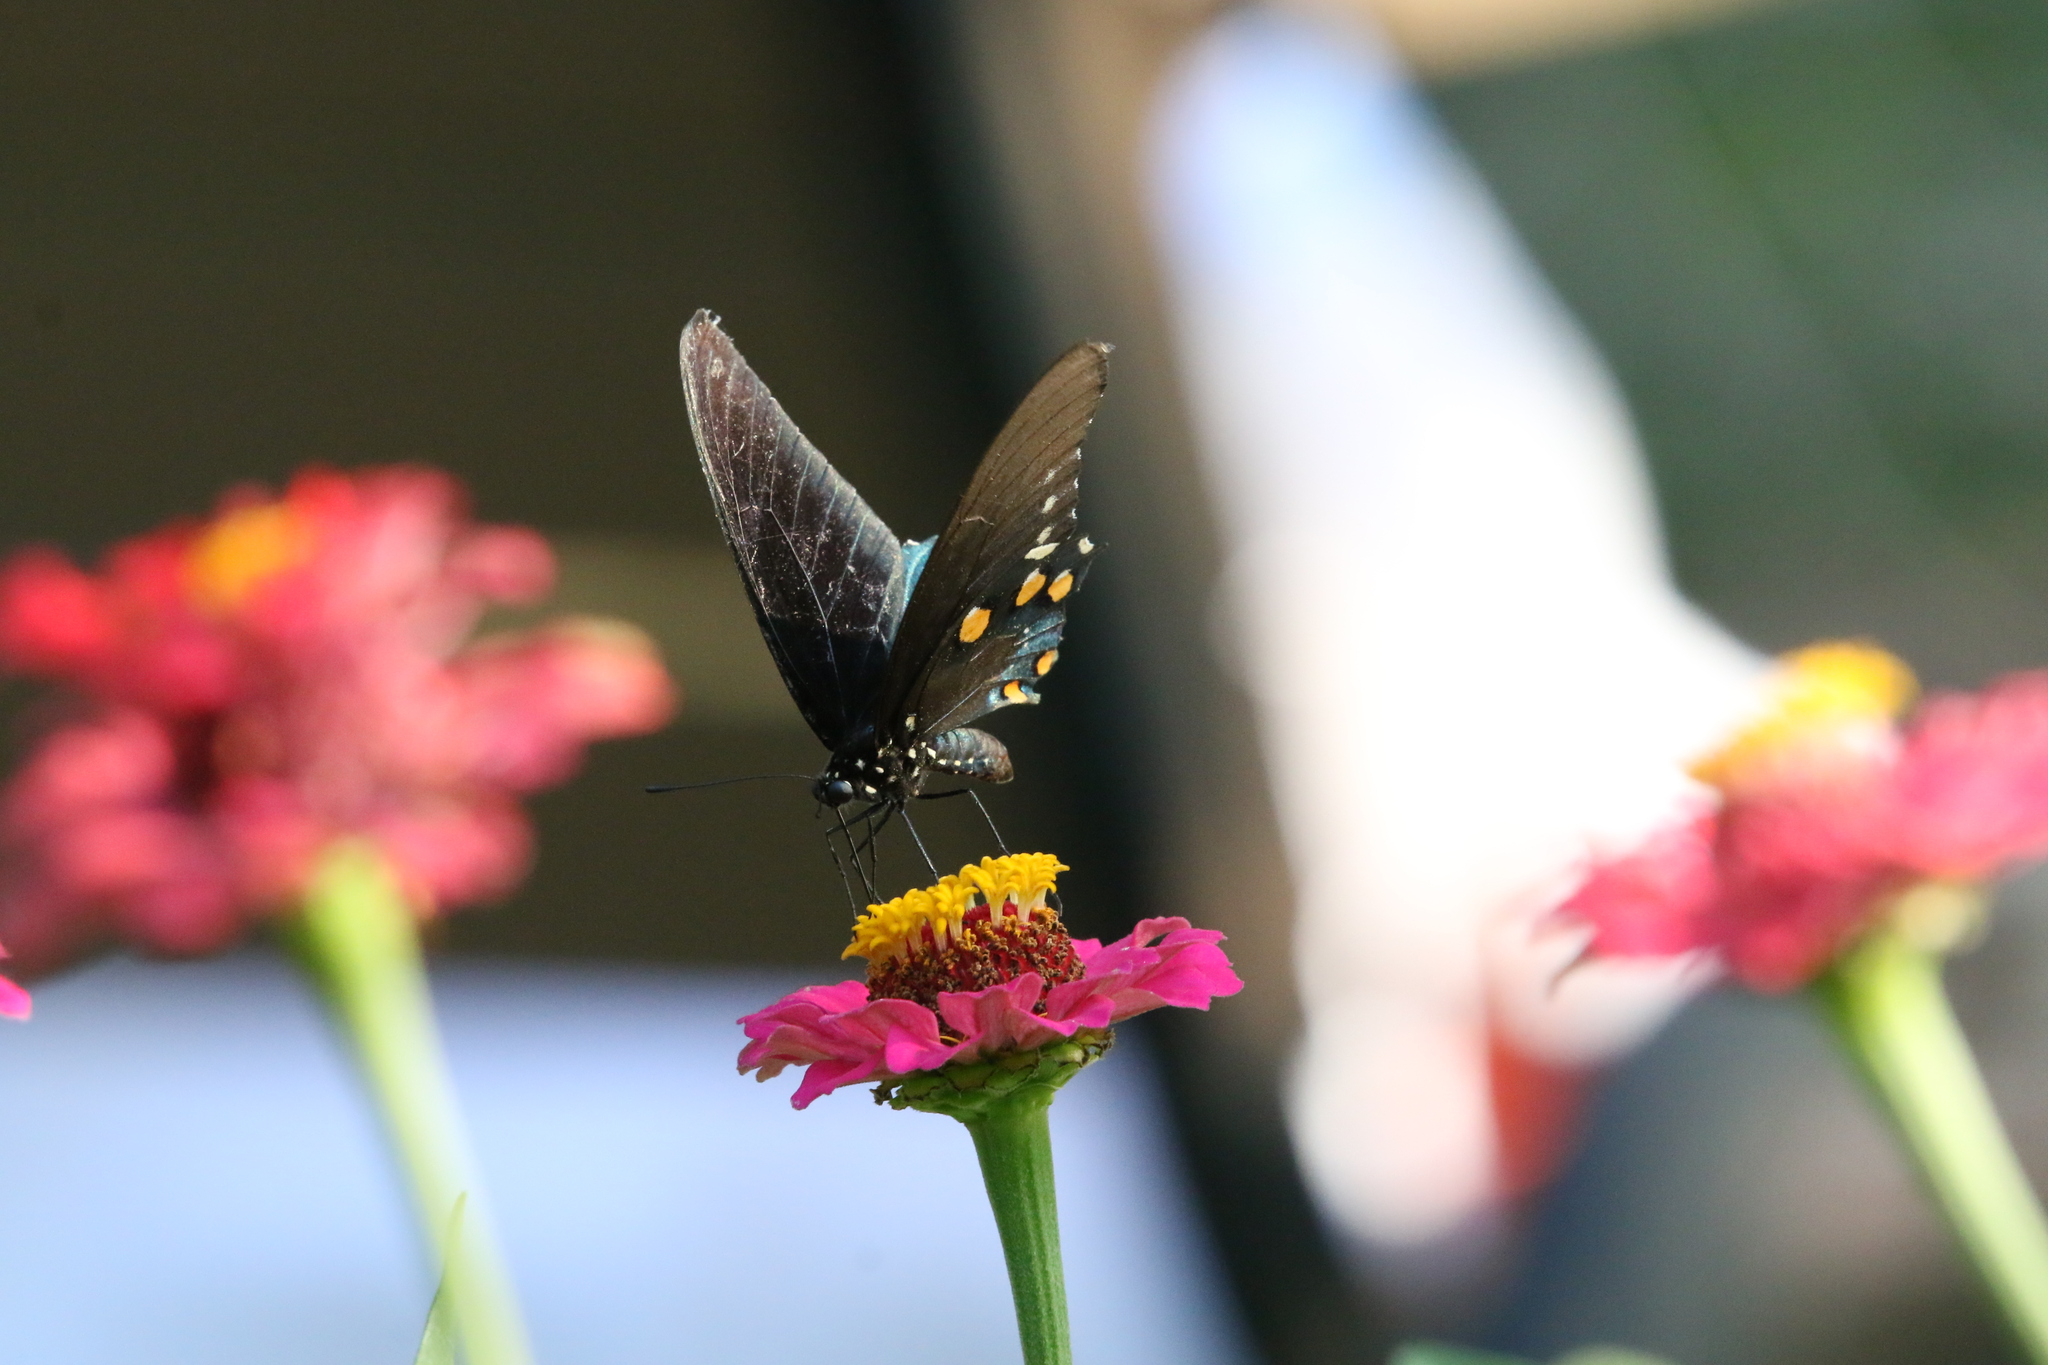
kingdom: Animalia
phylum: Arthropoda
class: Insecta
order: Lepidoptera
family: Papilionidae
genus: Battus
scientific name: Battus philenor
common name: Pipevine swallowtail
